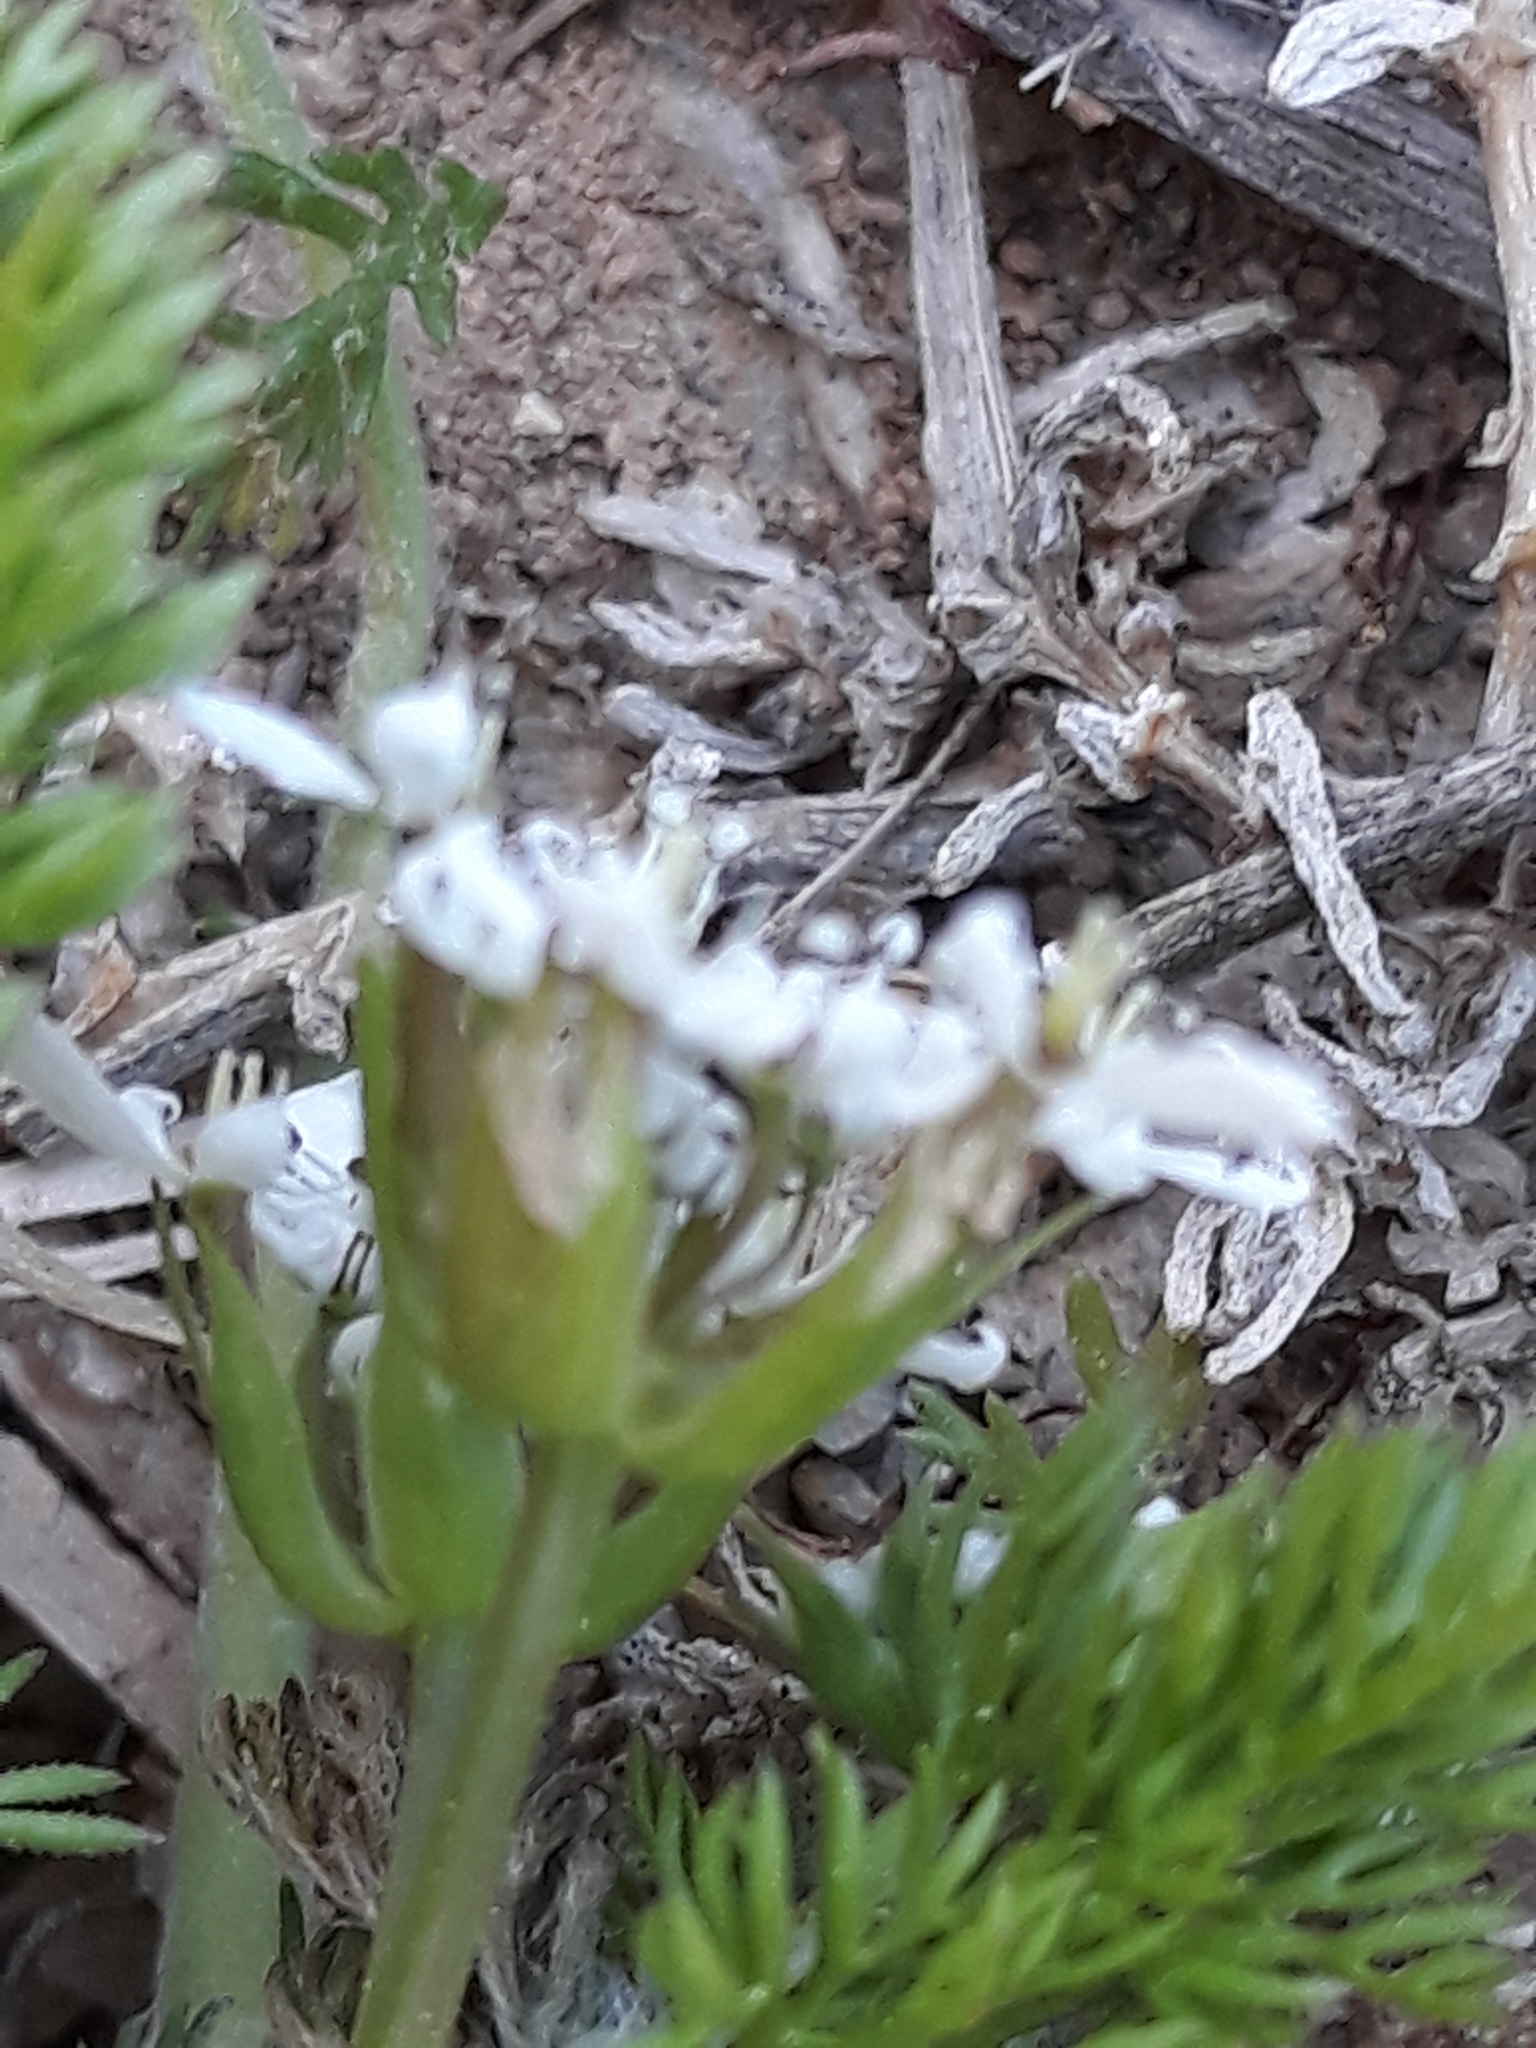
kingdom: Plantae
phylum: Tracheophyta
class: Magnoliopsida
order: Apiales
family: Apiaceae
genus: Scandix
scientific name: Scandix pecten-veneris
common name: Shepherd's-needle
